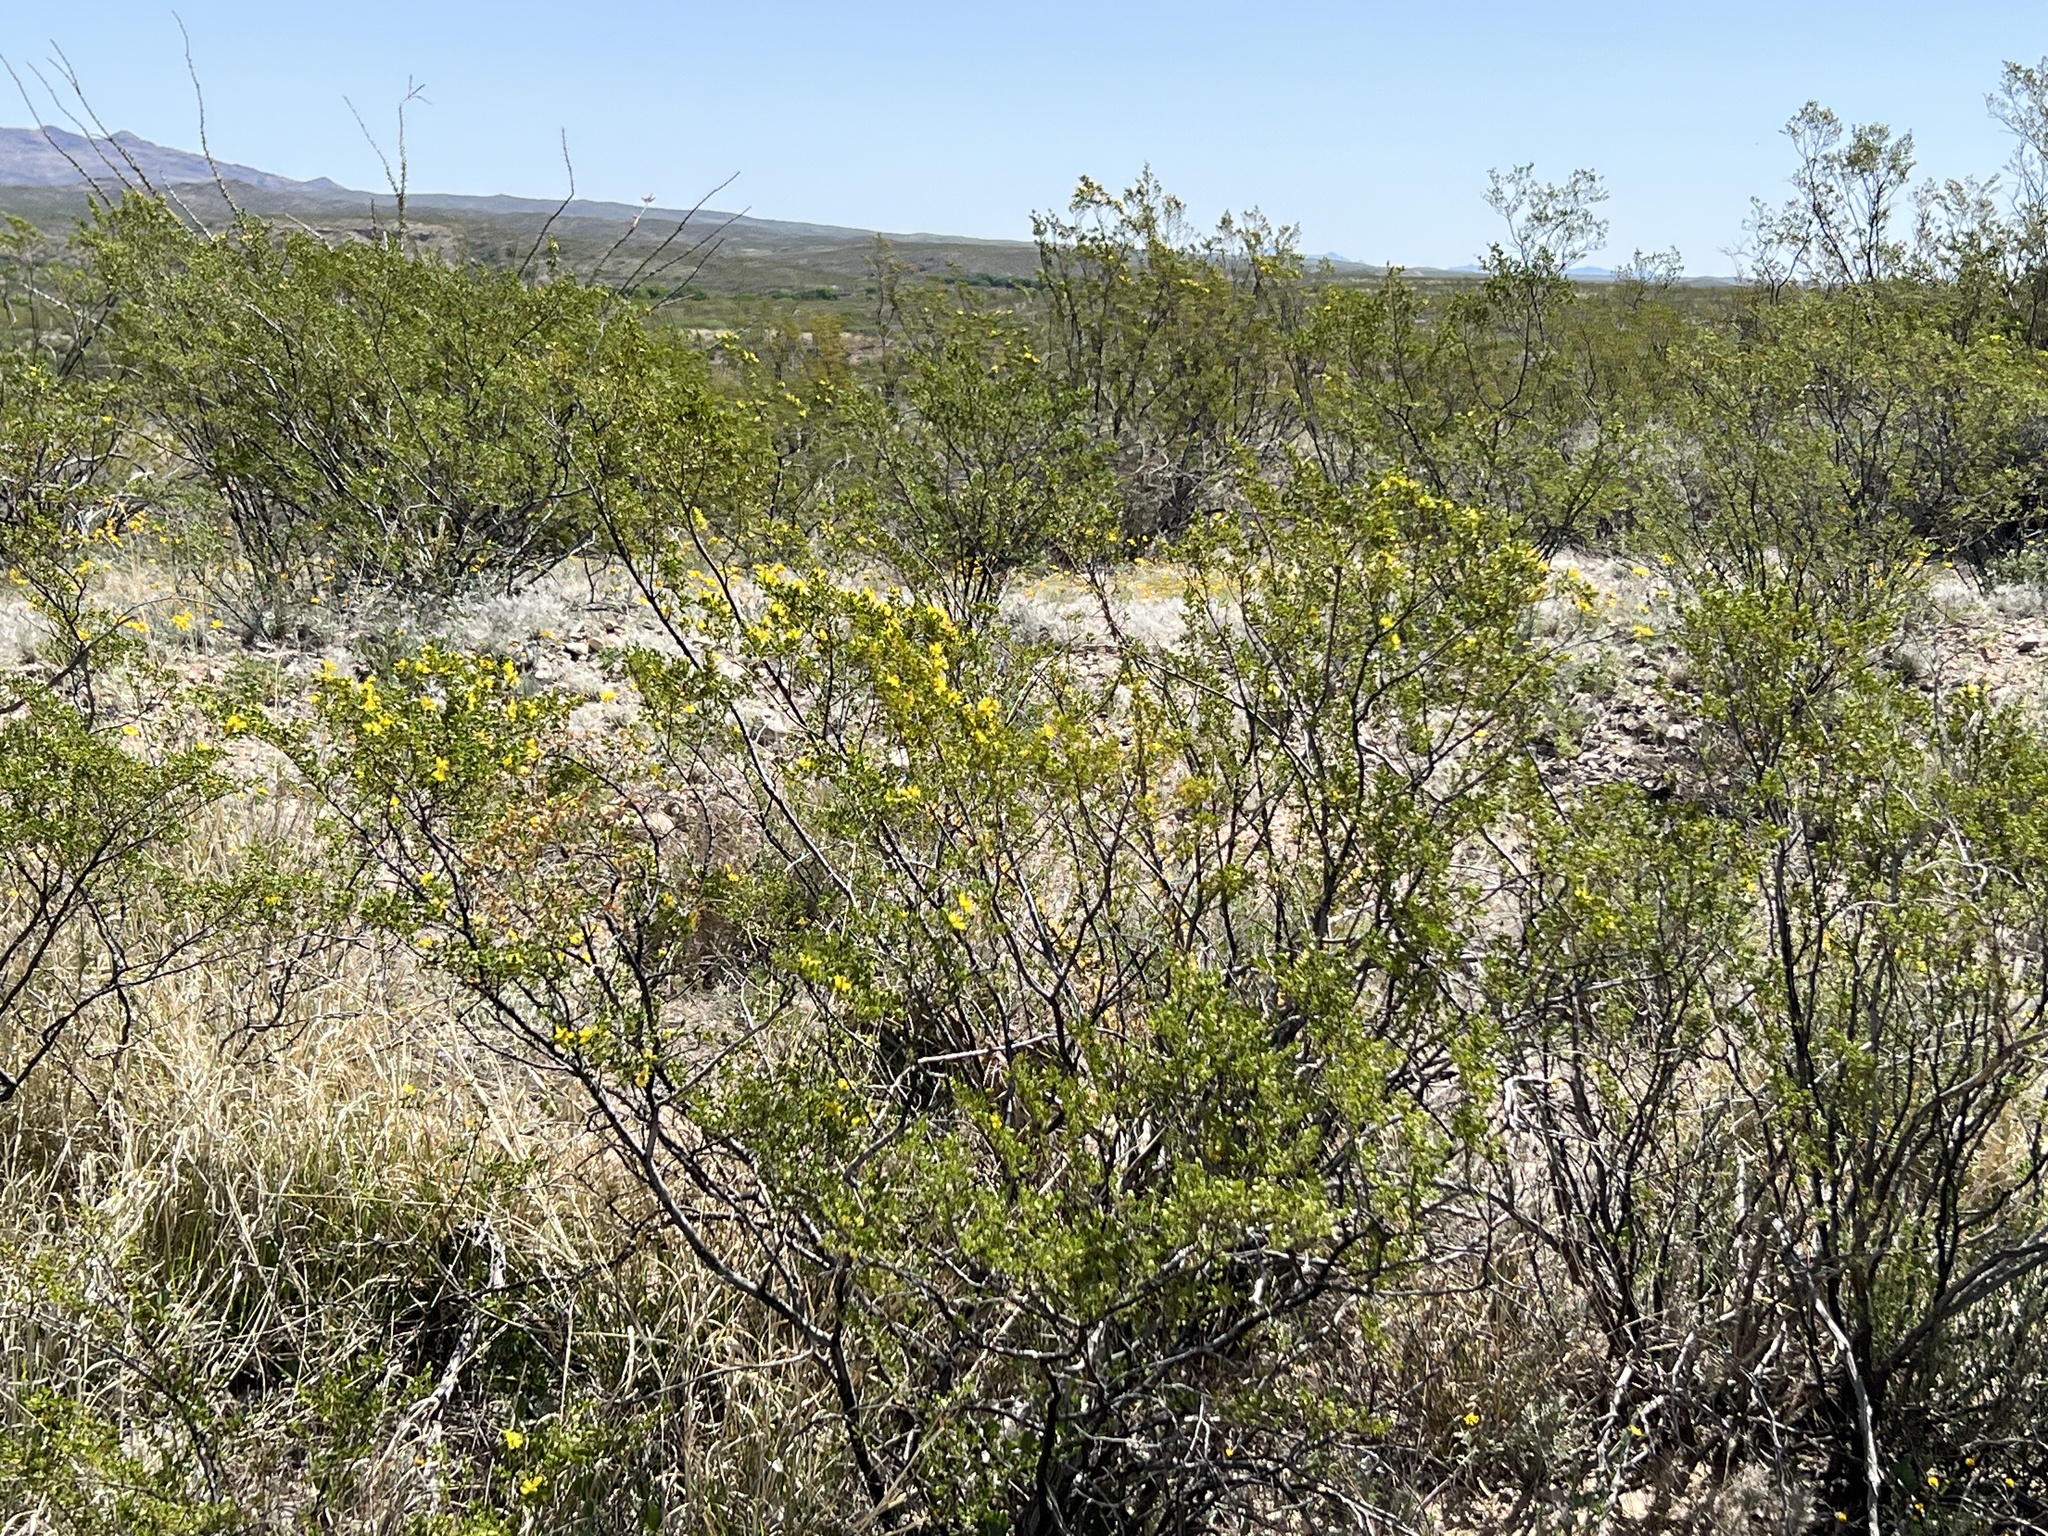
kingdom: Plantae
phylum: Tracheophyta
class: Magnoliopsida
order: Zygophyllales
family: Zygophyllaceae
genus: Larrea
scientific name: Larrea tridentata
